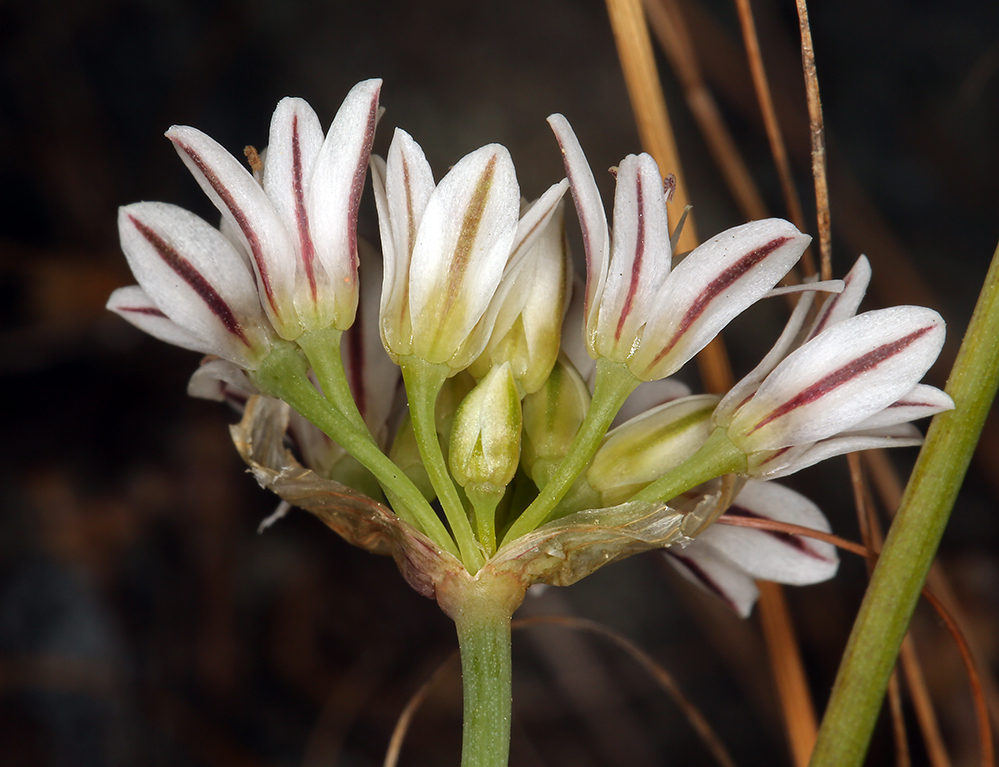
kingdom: Plantae
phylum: Tracheophyta
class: Liliopsida
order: Asparagales
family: Amaryllidaceae
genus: Allium
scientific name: Allium lacunosum
